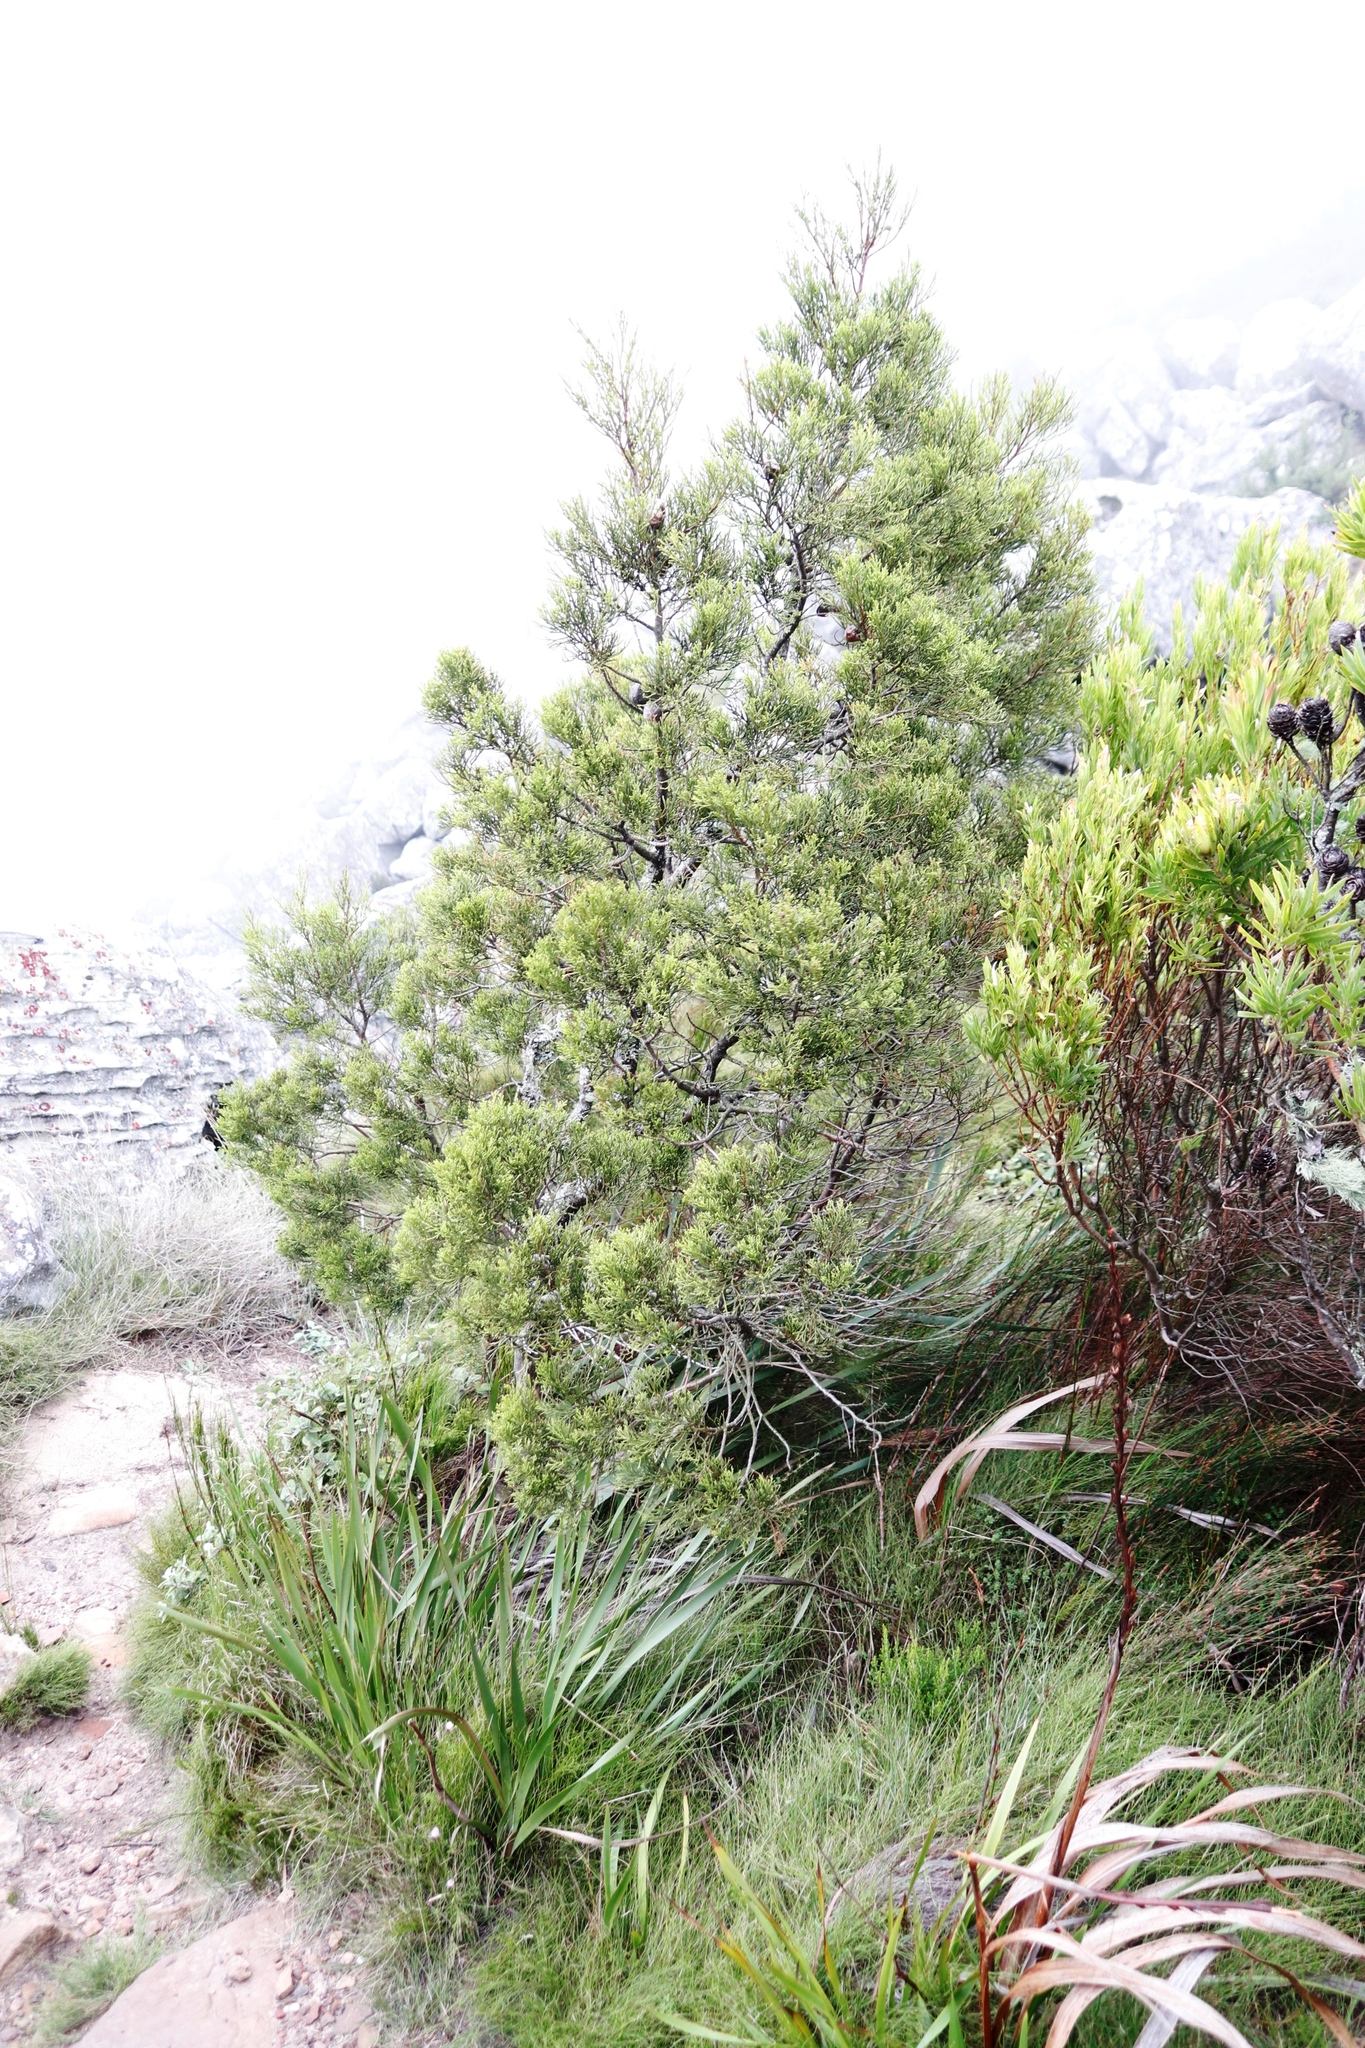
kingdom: Plantae
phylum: Tracheophyta
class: Pinopsida
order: Pinales
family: Cupressaceae
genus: Widdringtonia
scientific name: Widdringtonia nodiflora
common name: Cape cypress
